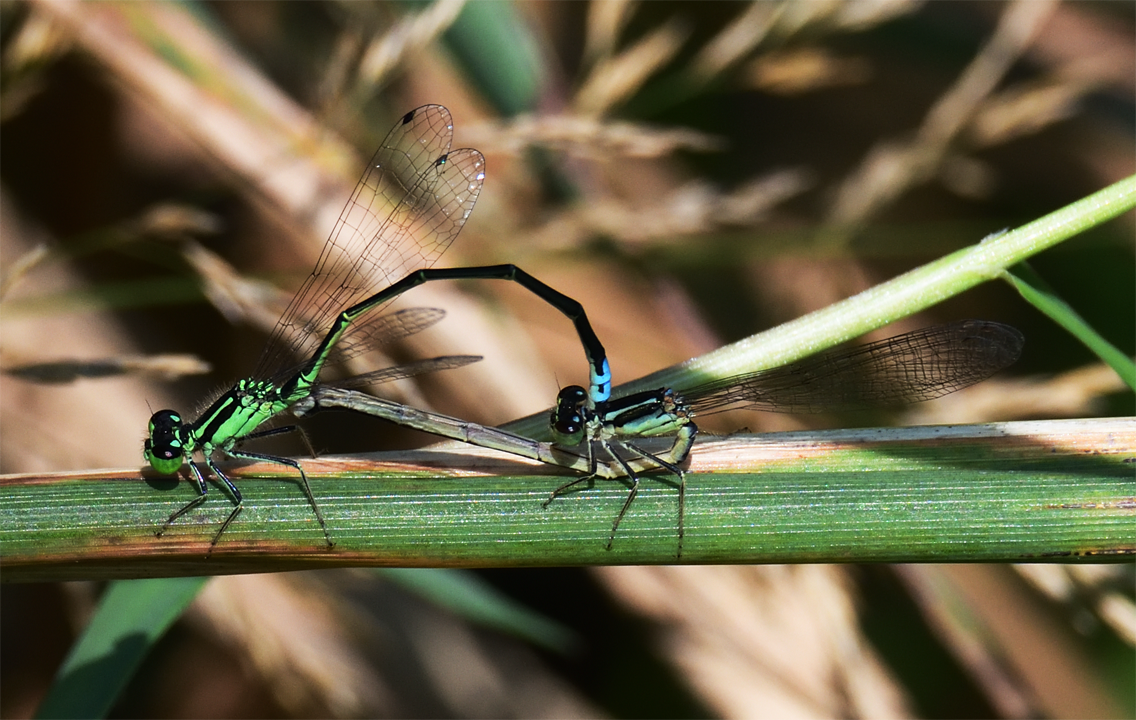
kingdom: Animalia
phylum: Arthropoda
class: Insecta
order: Odonata
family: Coenagrionidae
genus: Ischnura
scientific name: Ischnura verticalis
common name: Eastern forktail
